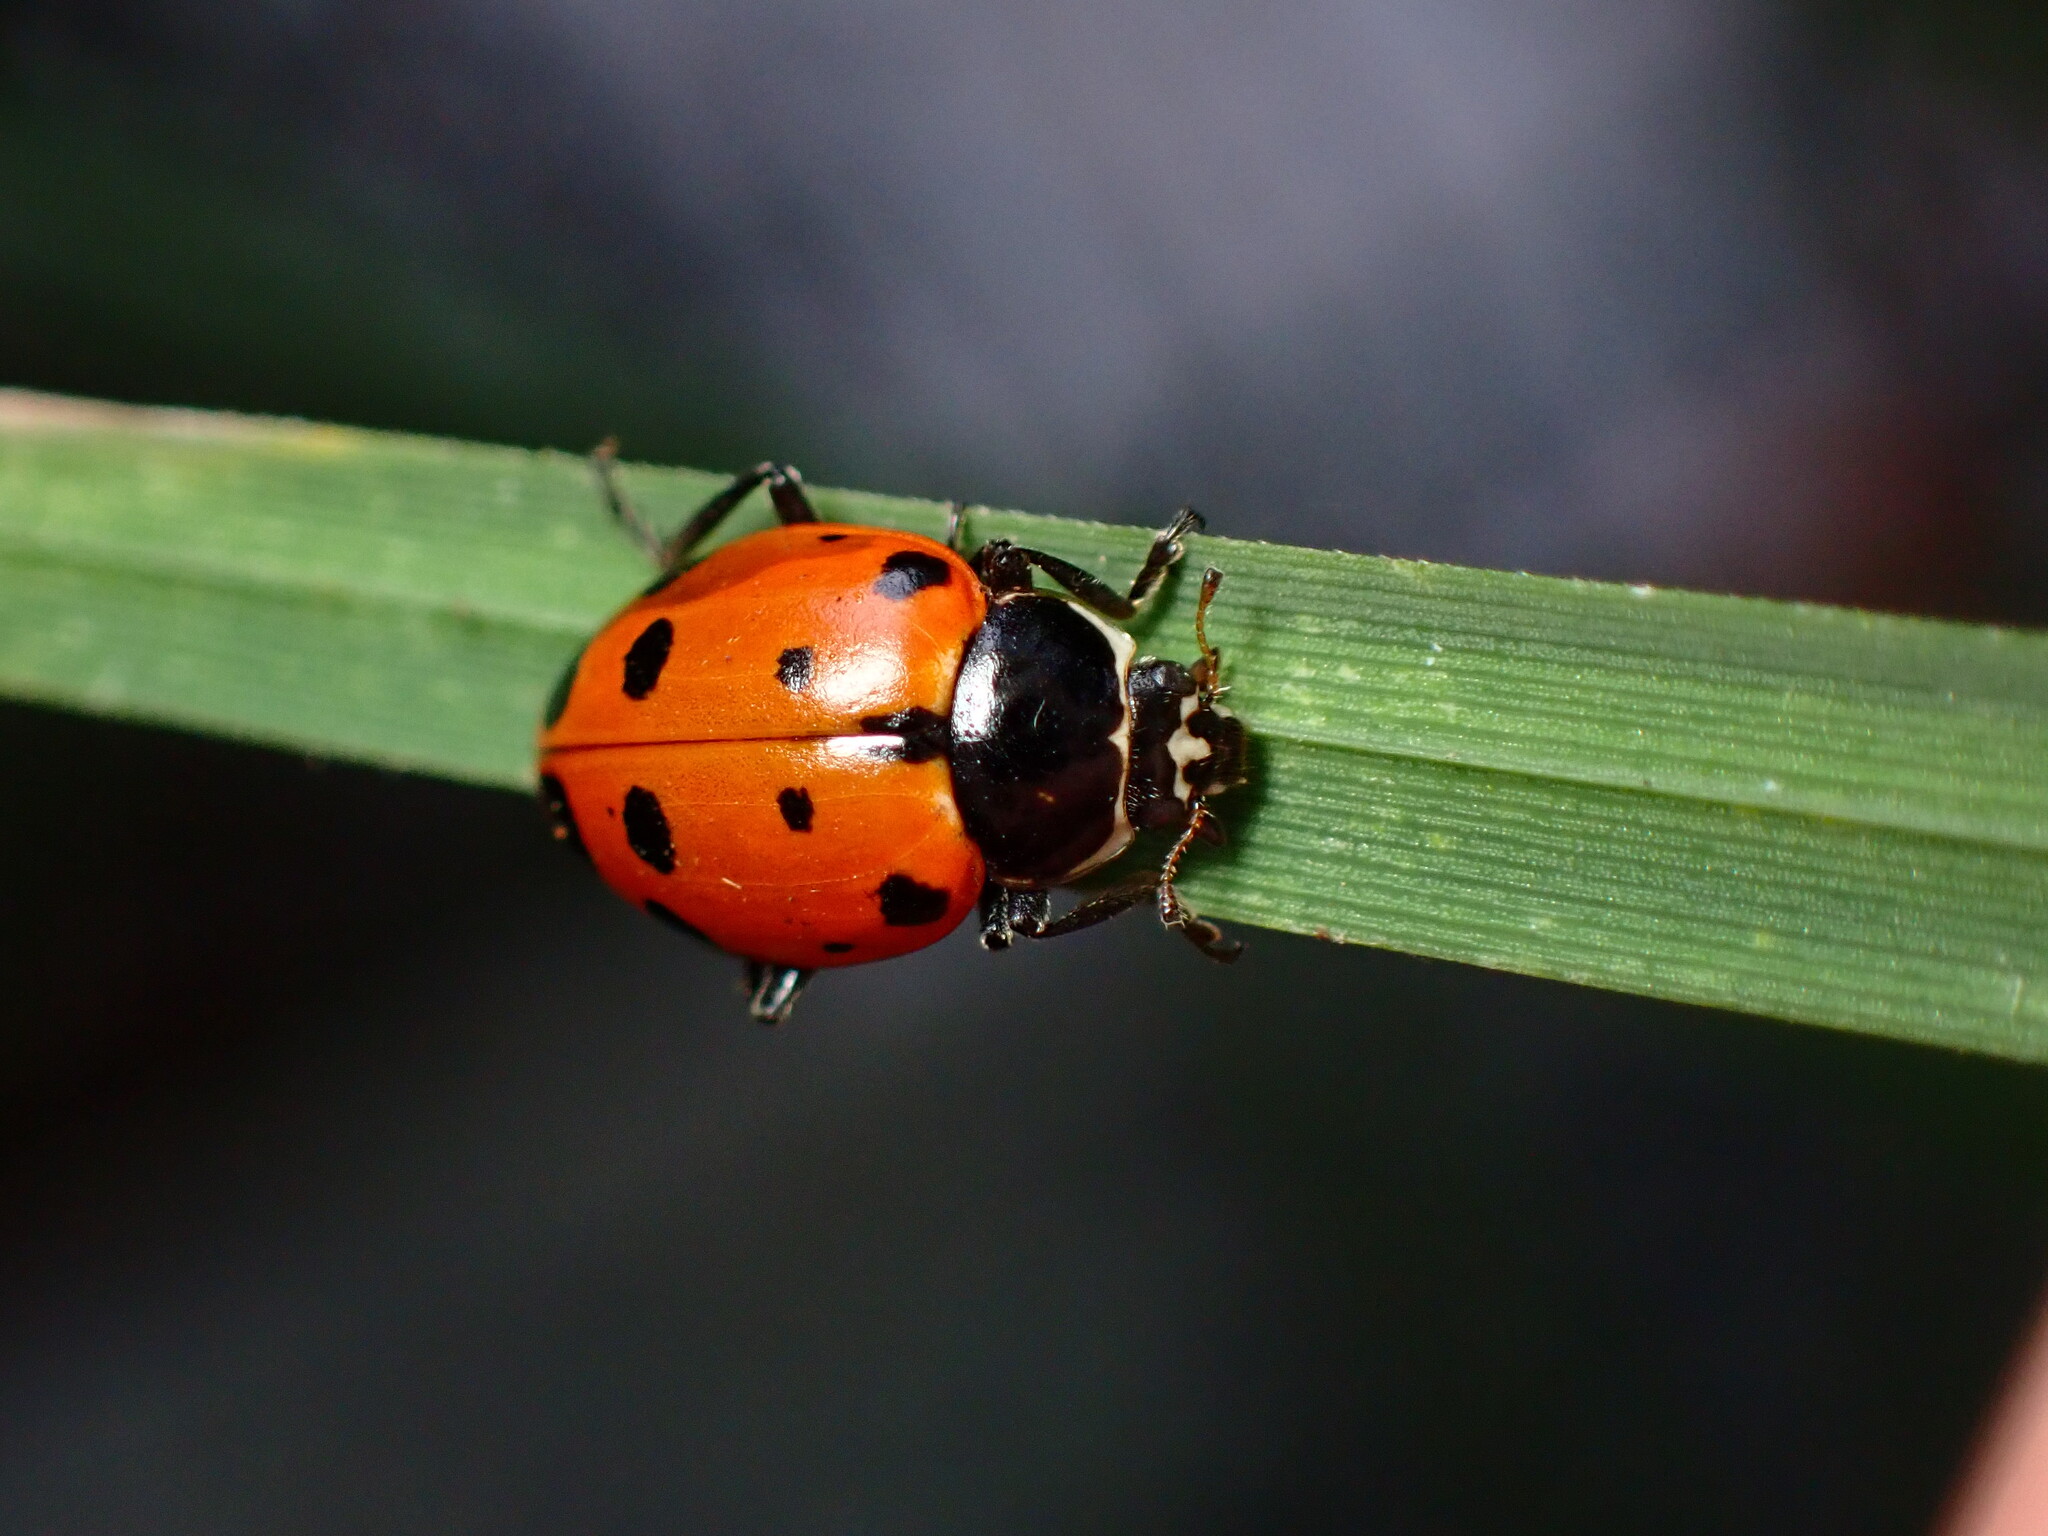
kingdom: Animalia
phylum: Arthropoda
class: Insecta
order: Coleoptera
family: Coccinellidae
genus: Hippodamia
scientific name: Hippodamia quinquesignata
